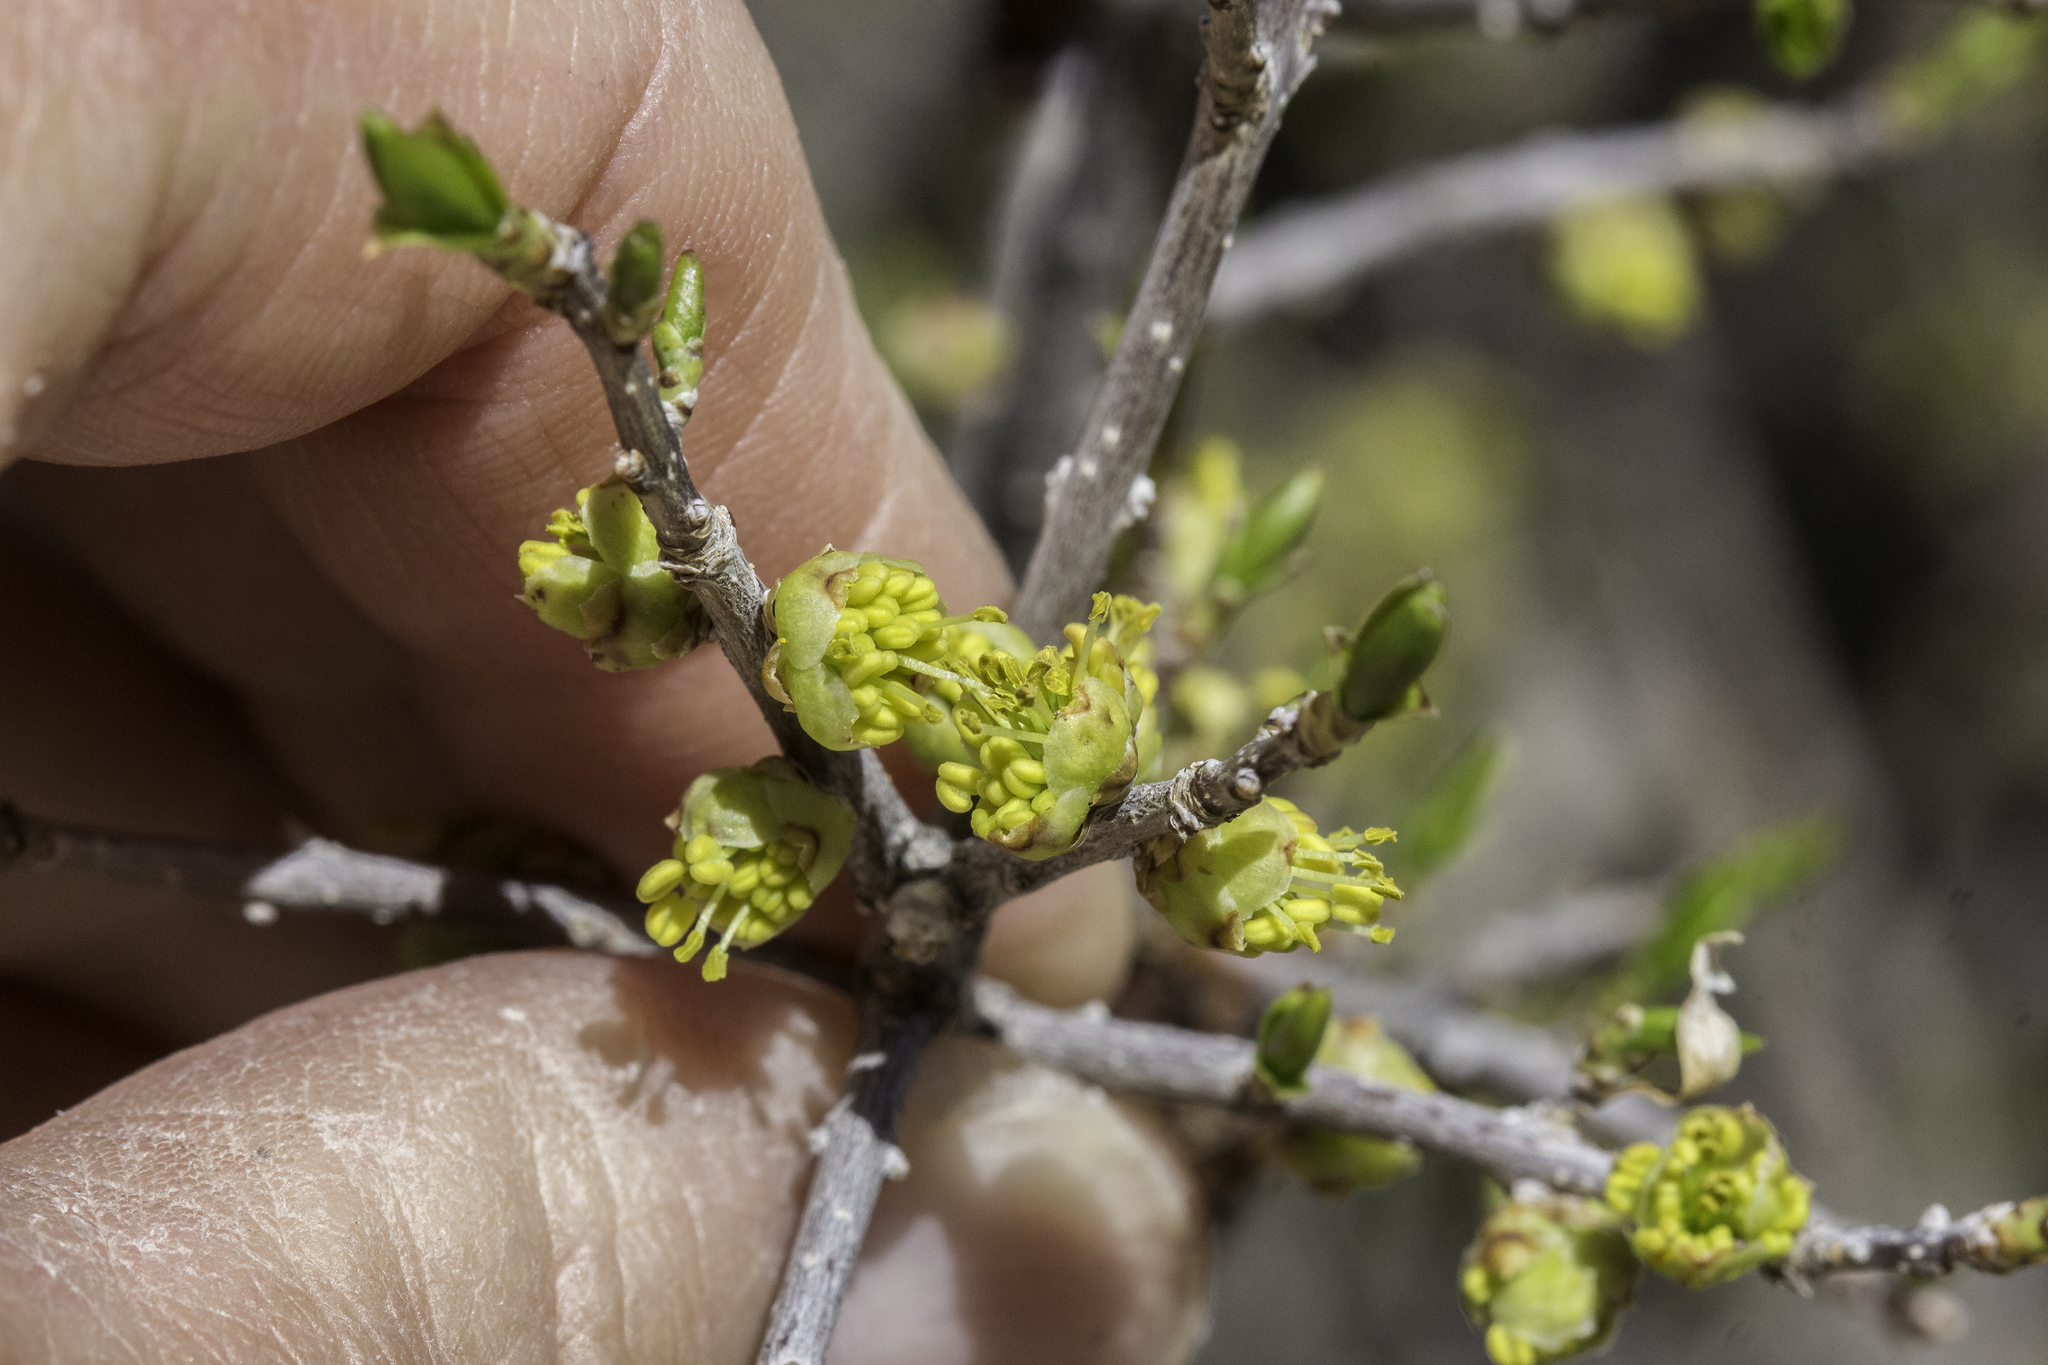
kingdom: Plantae
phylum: Tracheophyta
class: Magnoliopsida
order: Lamiales
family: Oleaceae
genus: Forestiera
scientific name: Forestiera pubescens
